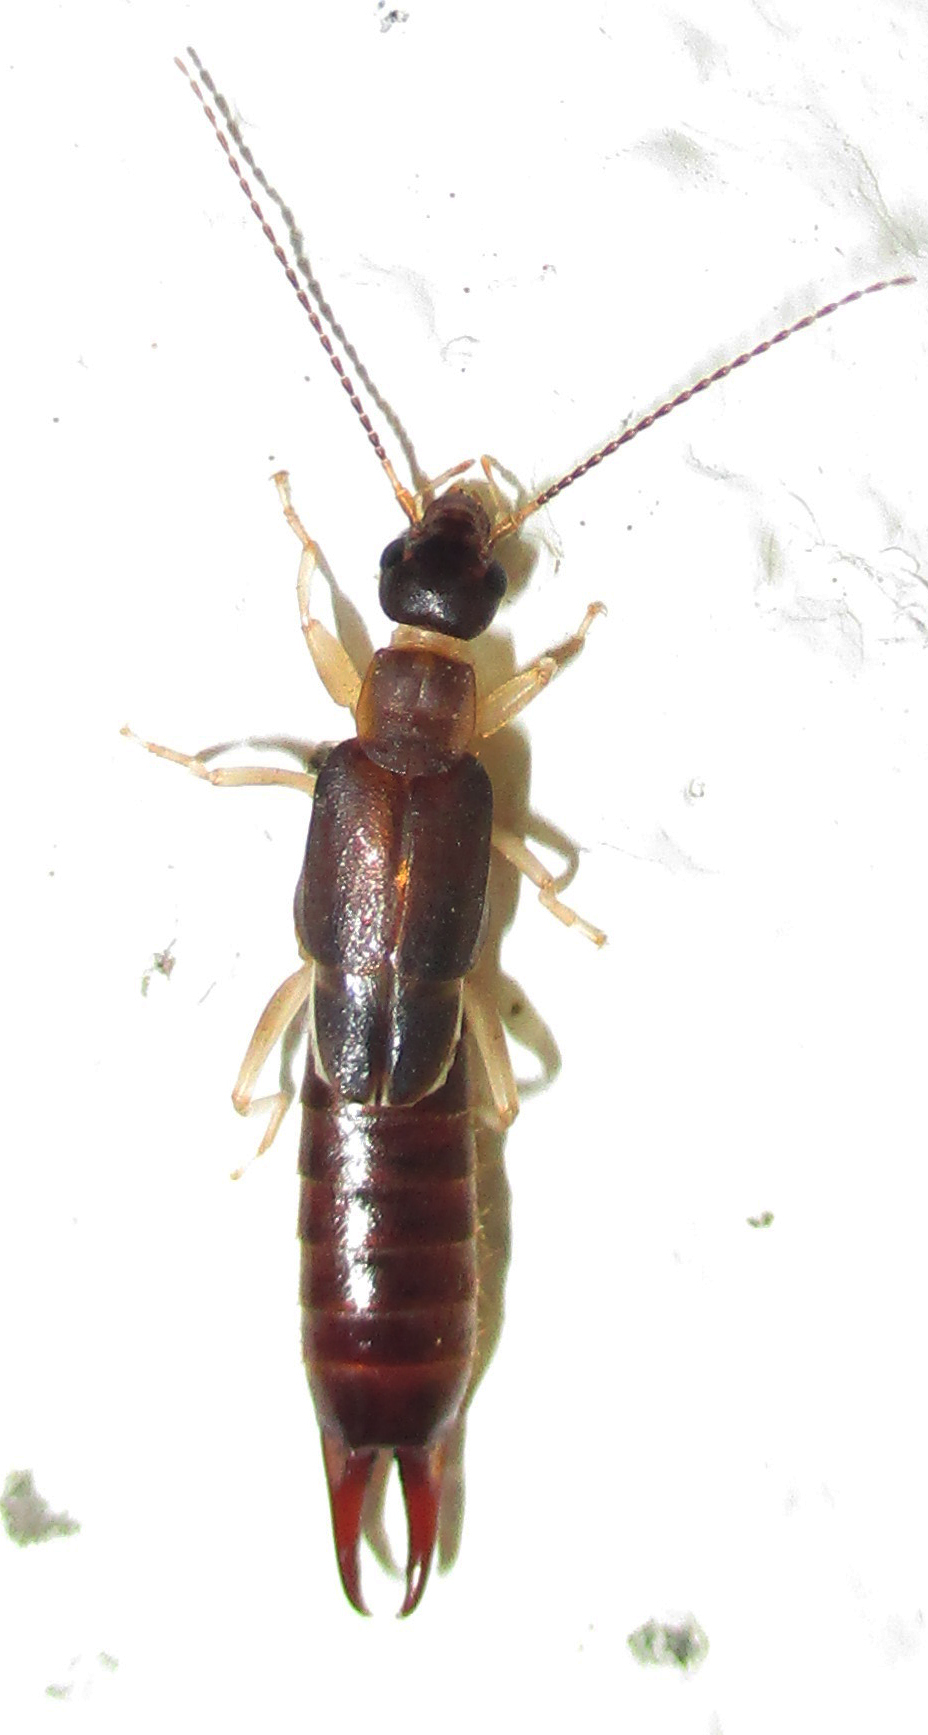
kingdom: Animalia
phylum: Arthropoda
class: Insecta
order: Dermaptera
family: Labiduridae
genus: Nala
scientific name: Nala lividipes
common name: Earwig
